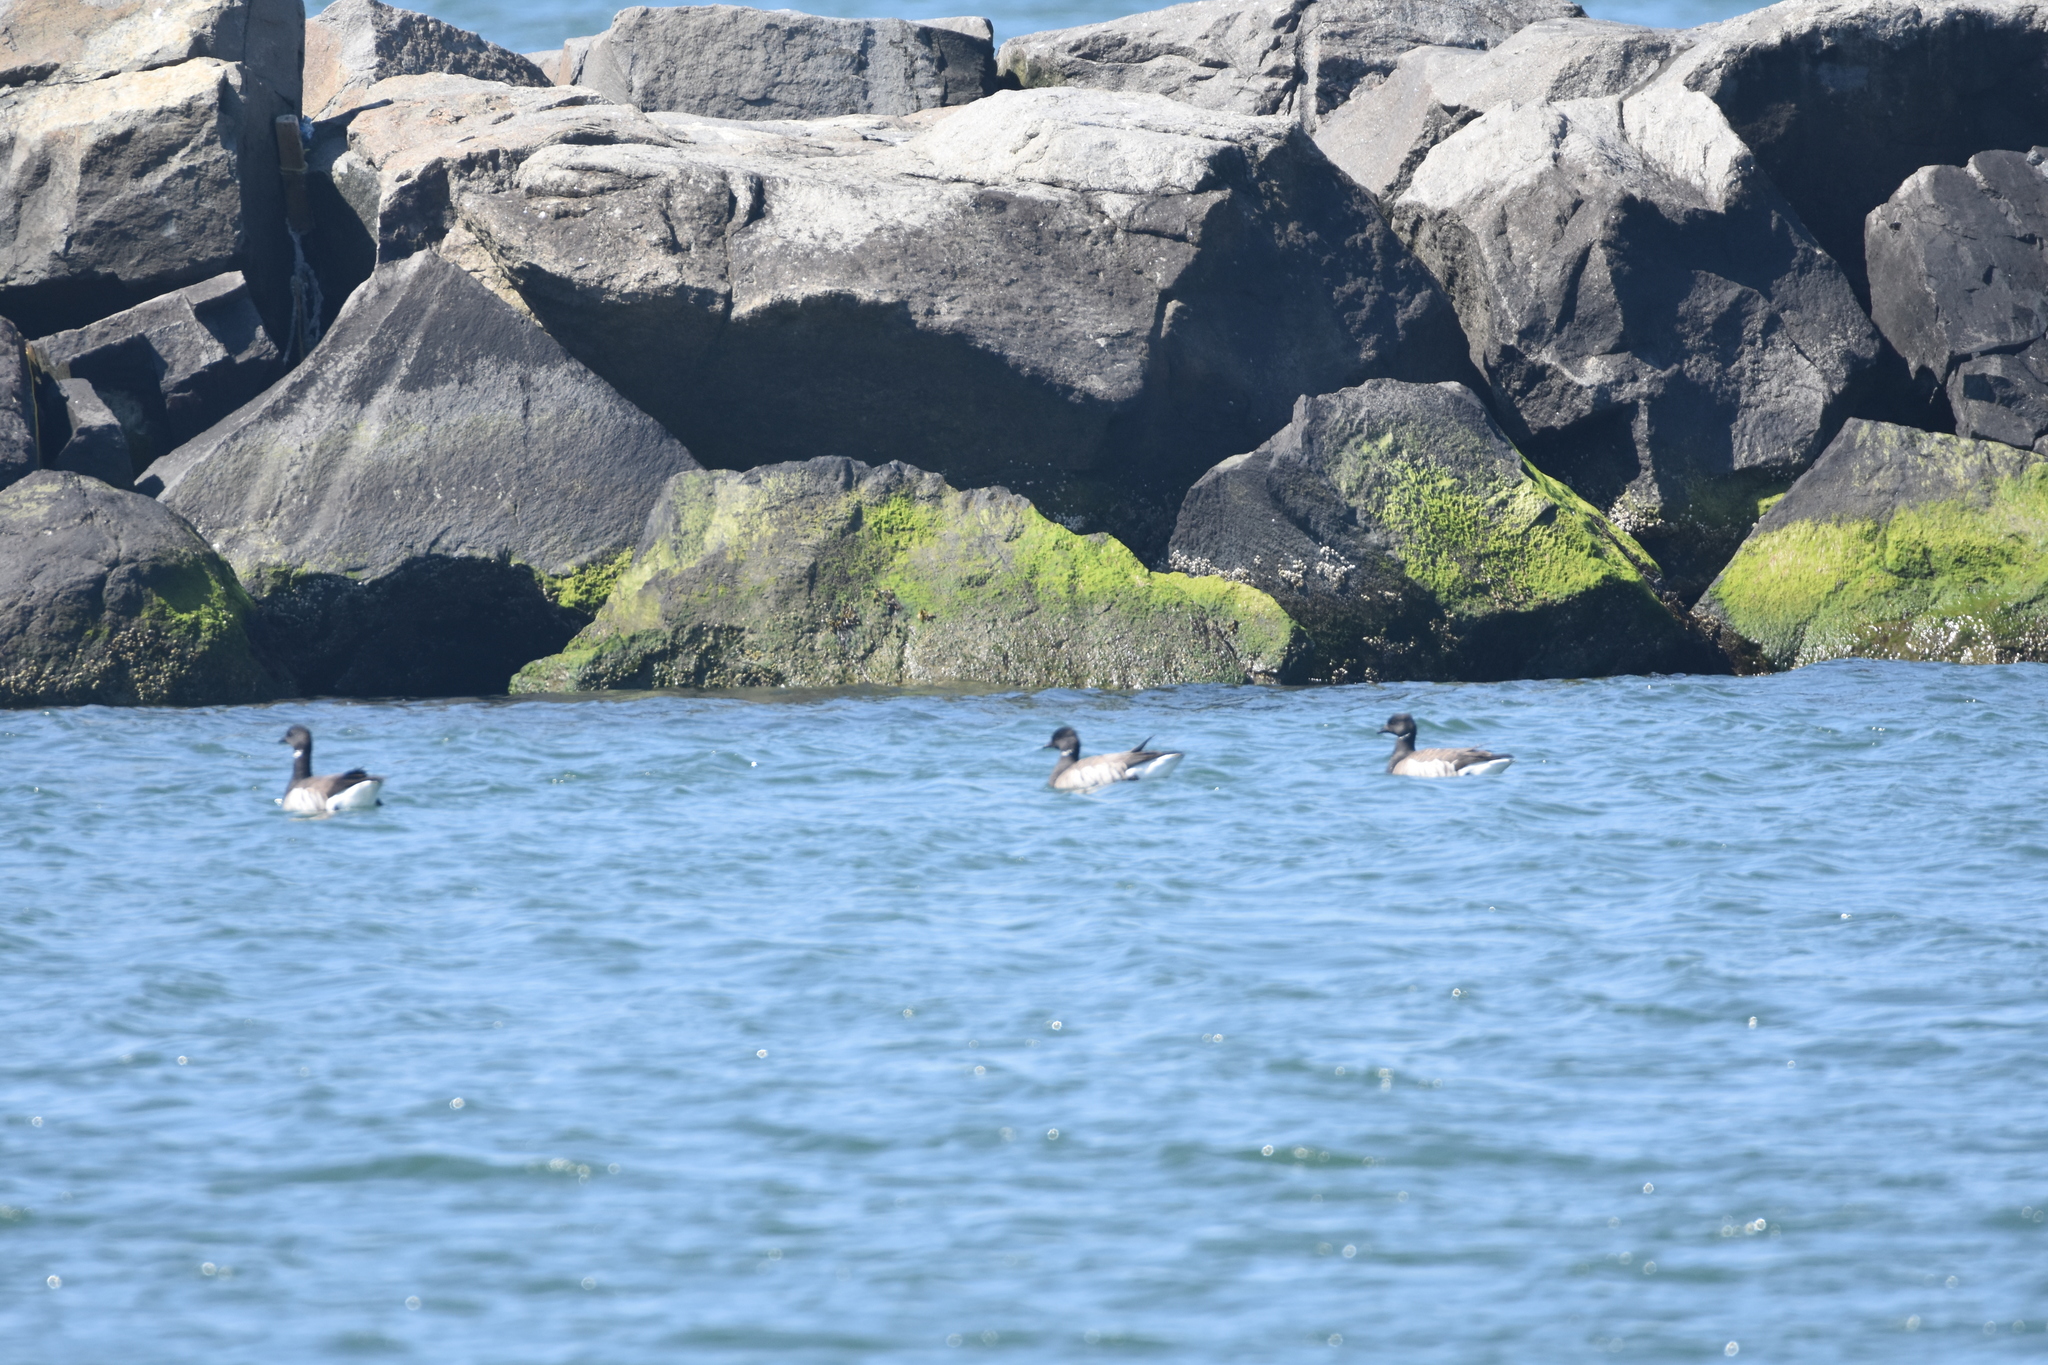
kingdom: Animalia
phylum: Chordata
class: Aves
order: Anseriformes
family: Anatidae
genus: Branta
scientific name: Branta bernicla
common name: Brant goose
